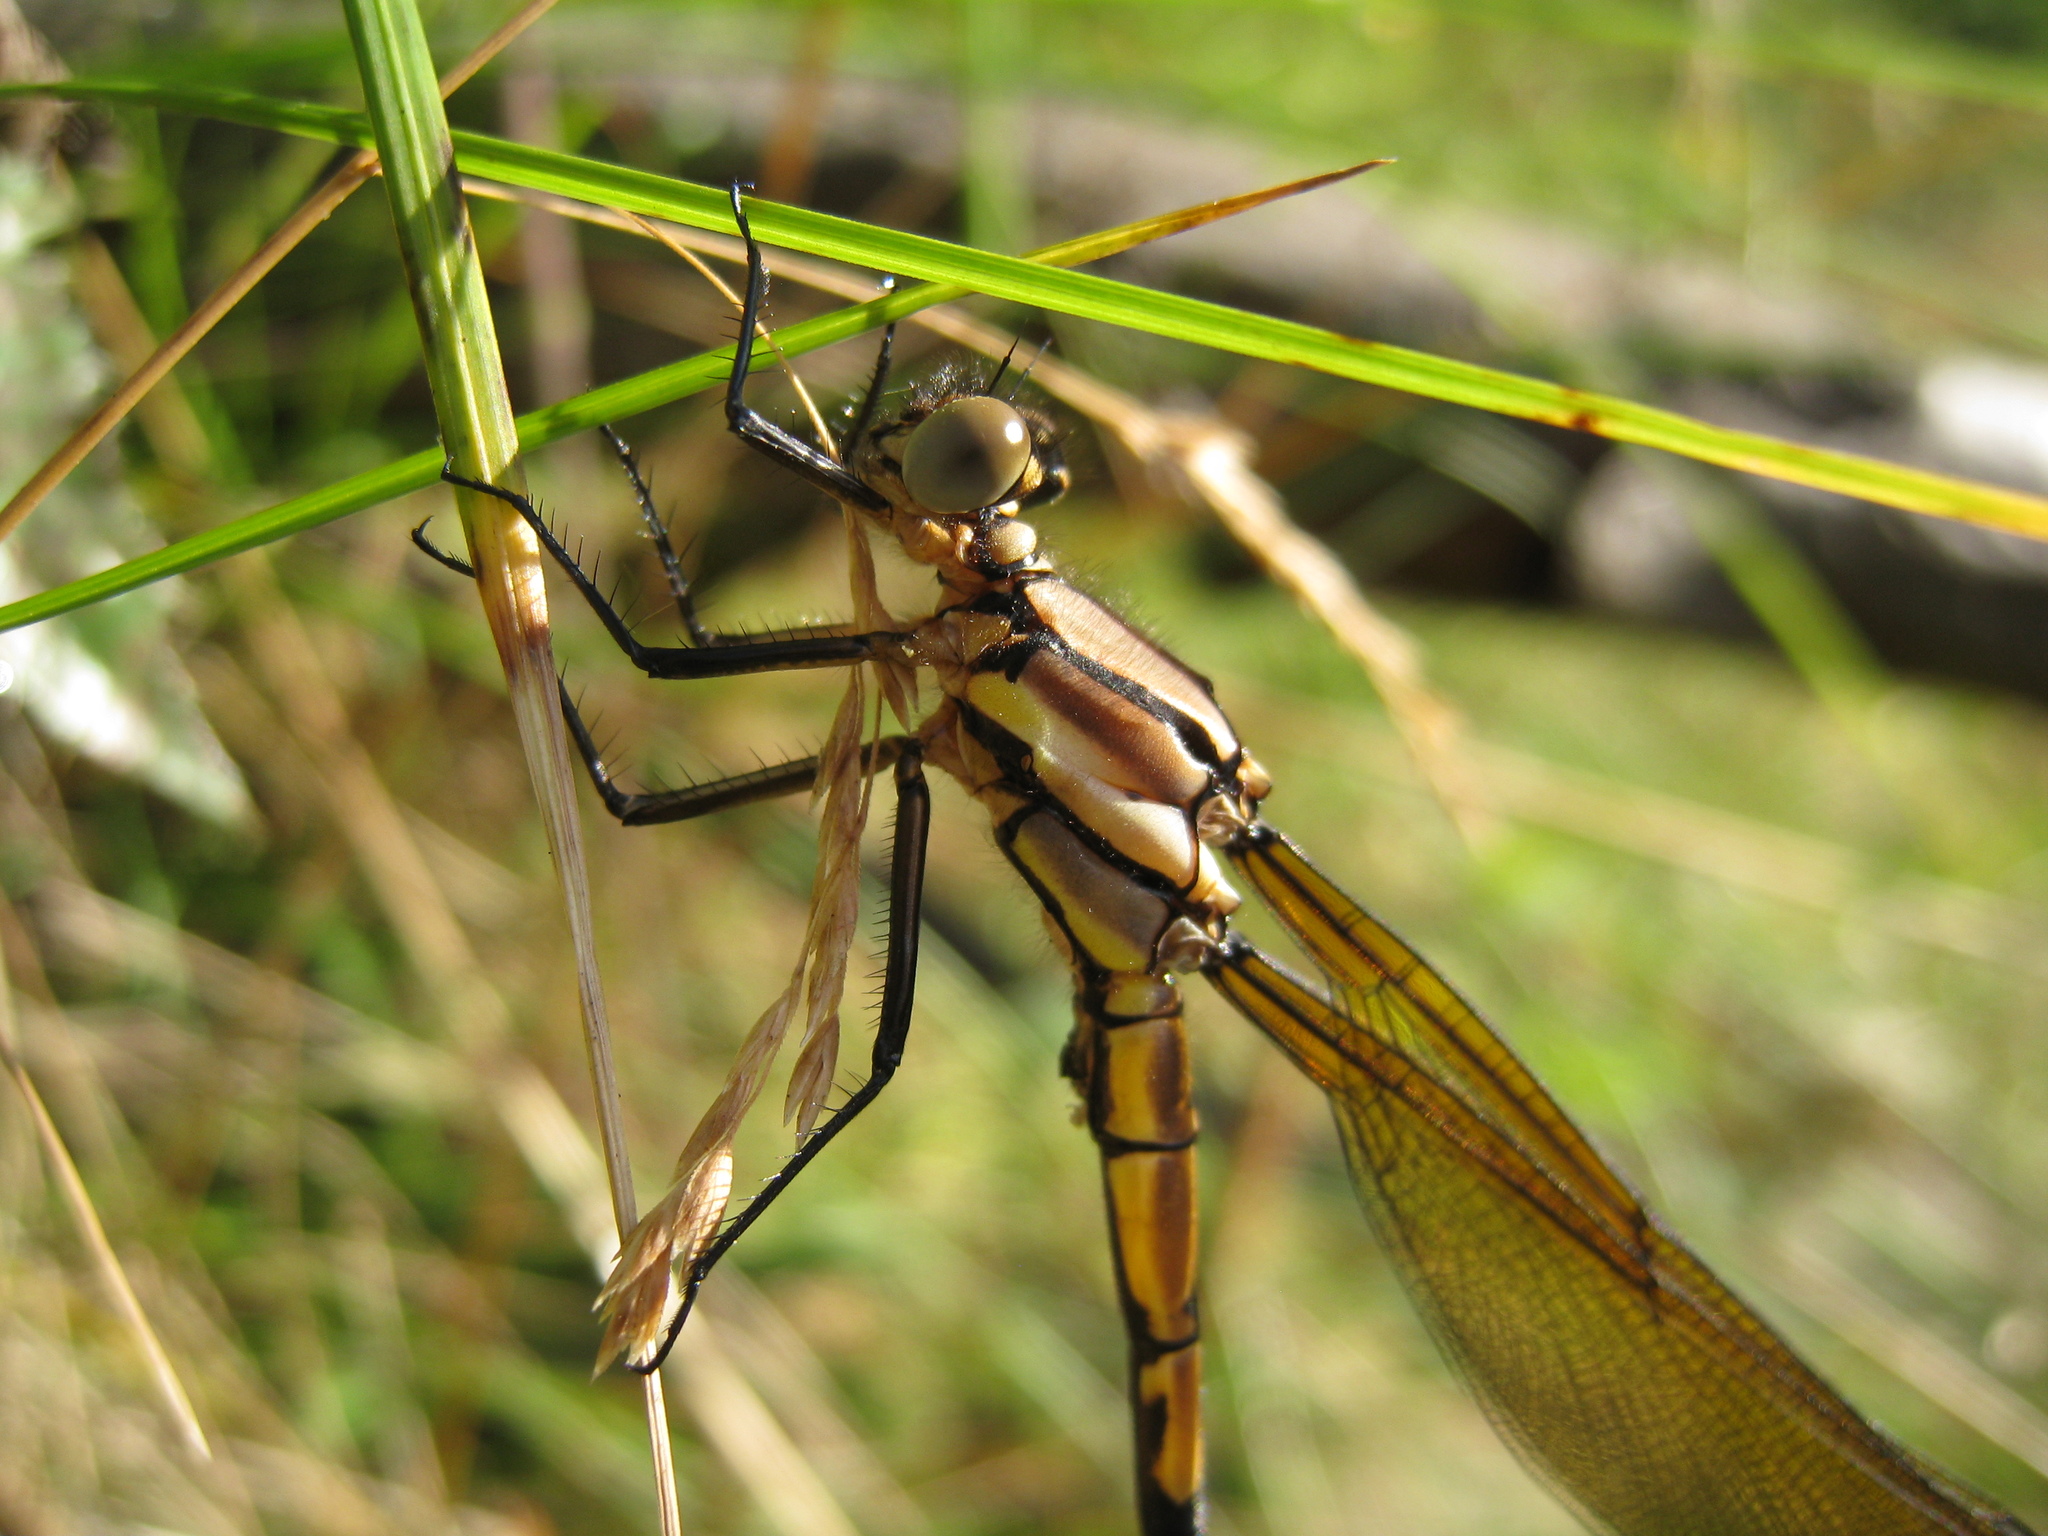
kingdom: Animalia
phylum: Arthropoda
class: Insecta
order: Odonata
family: Lestoideidae
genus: Diphlebia
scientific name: Diphlebia nymphoides
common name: Arrowhead rockmaster
